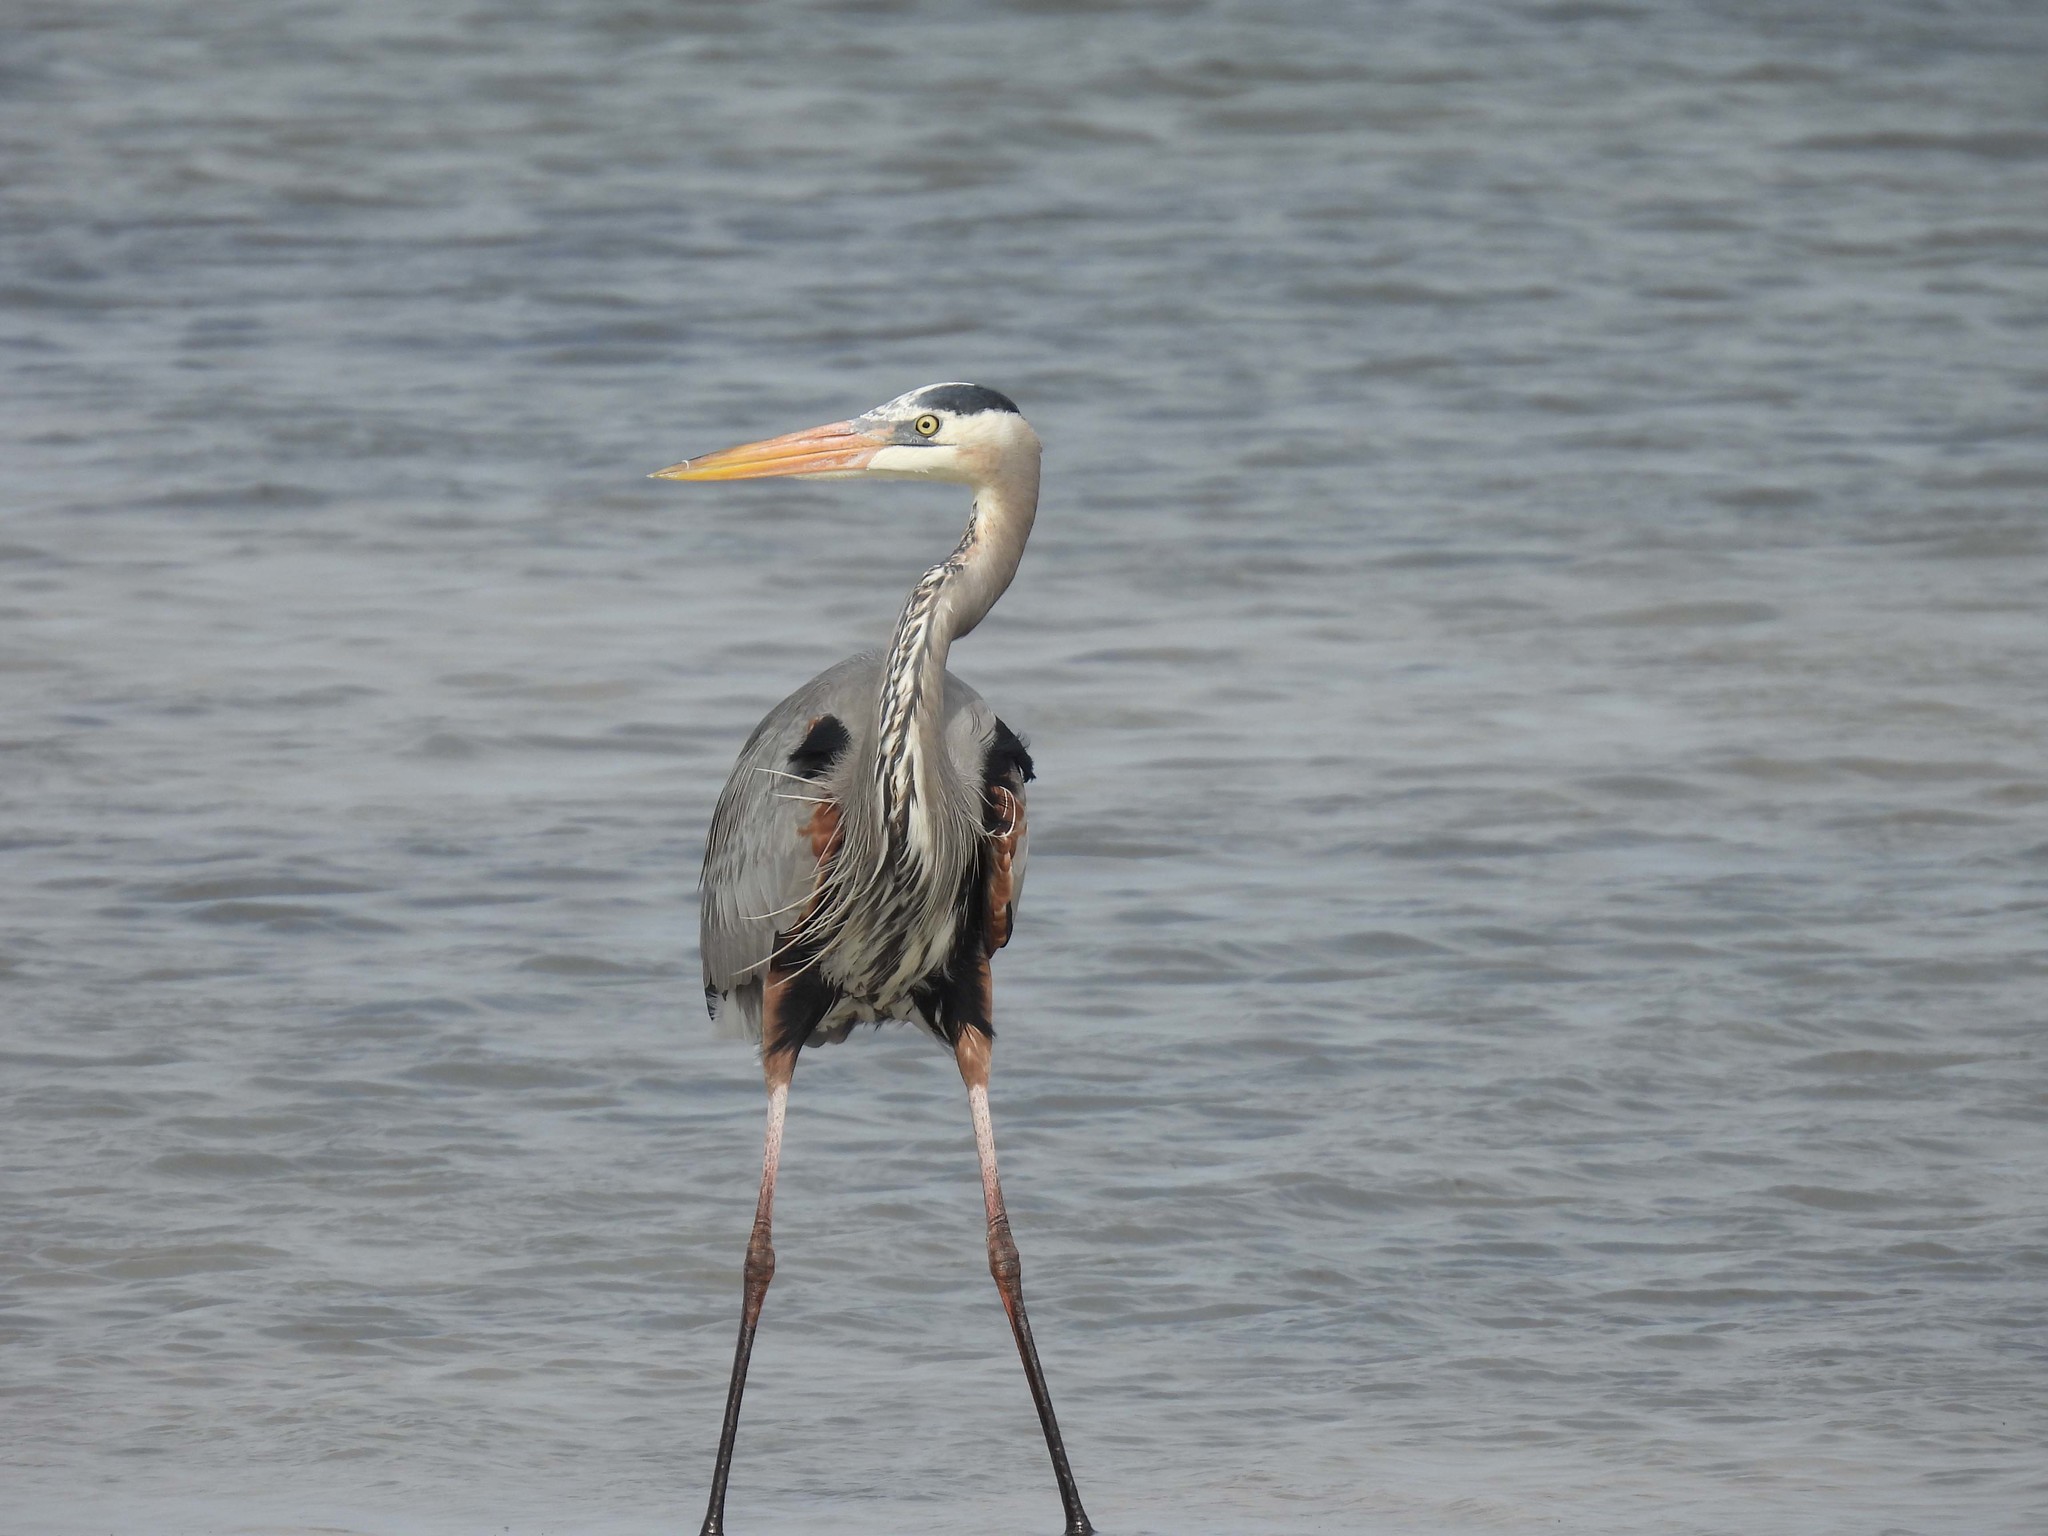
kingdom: Animalia
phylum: Chordata
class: Aves
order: Pelecaniformes
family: Ardeidae
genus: Ardea
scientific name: Ardea herodias
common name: Great blue heron
